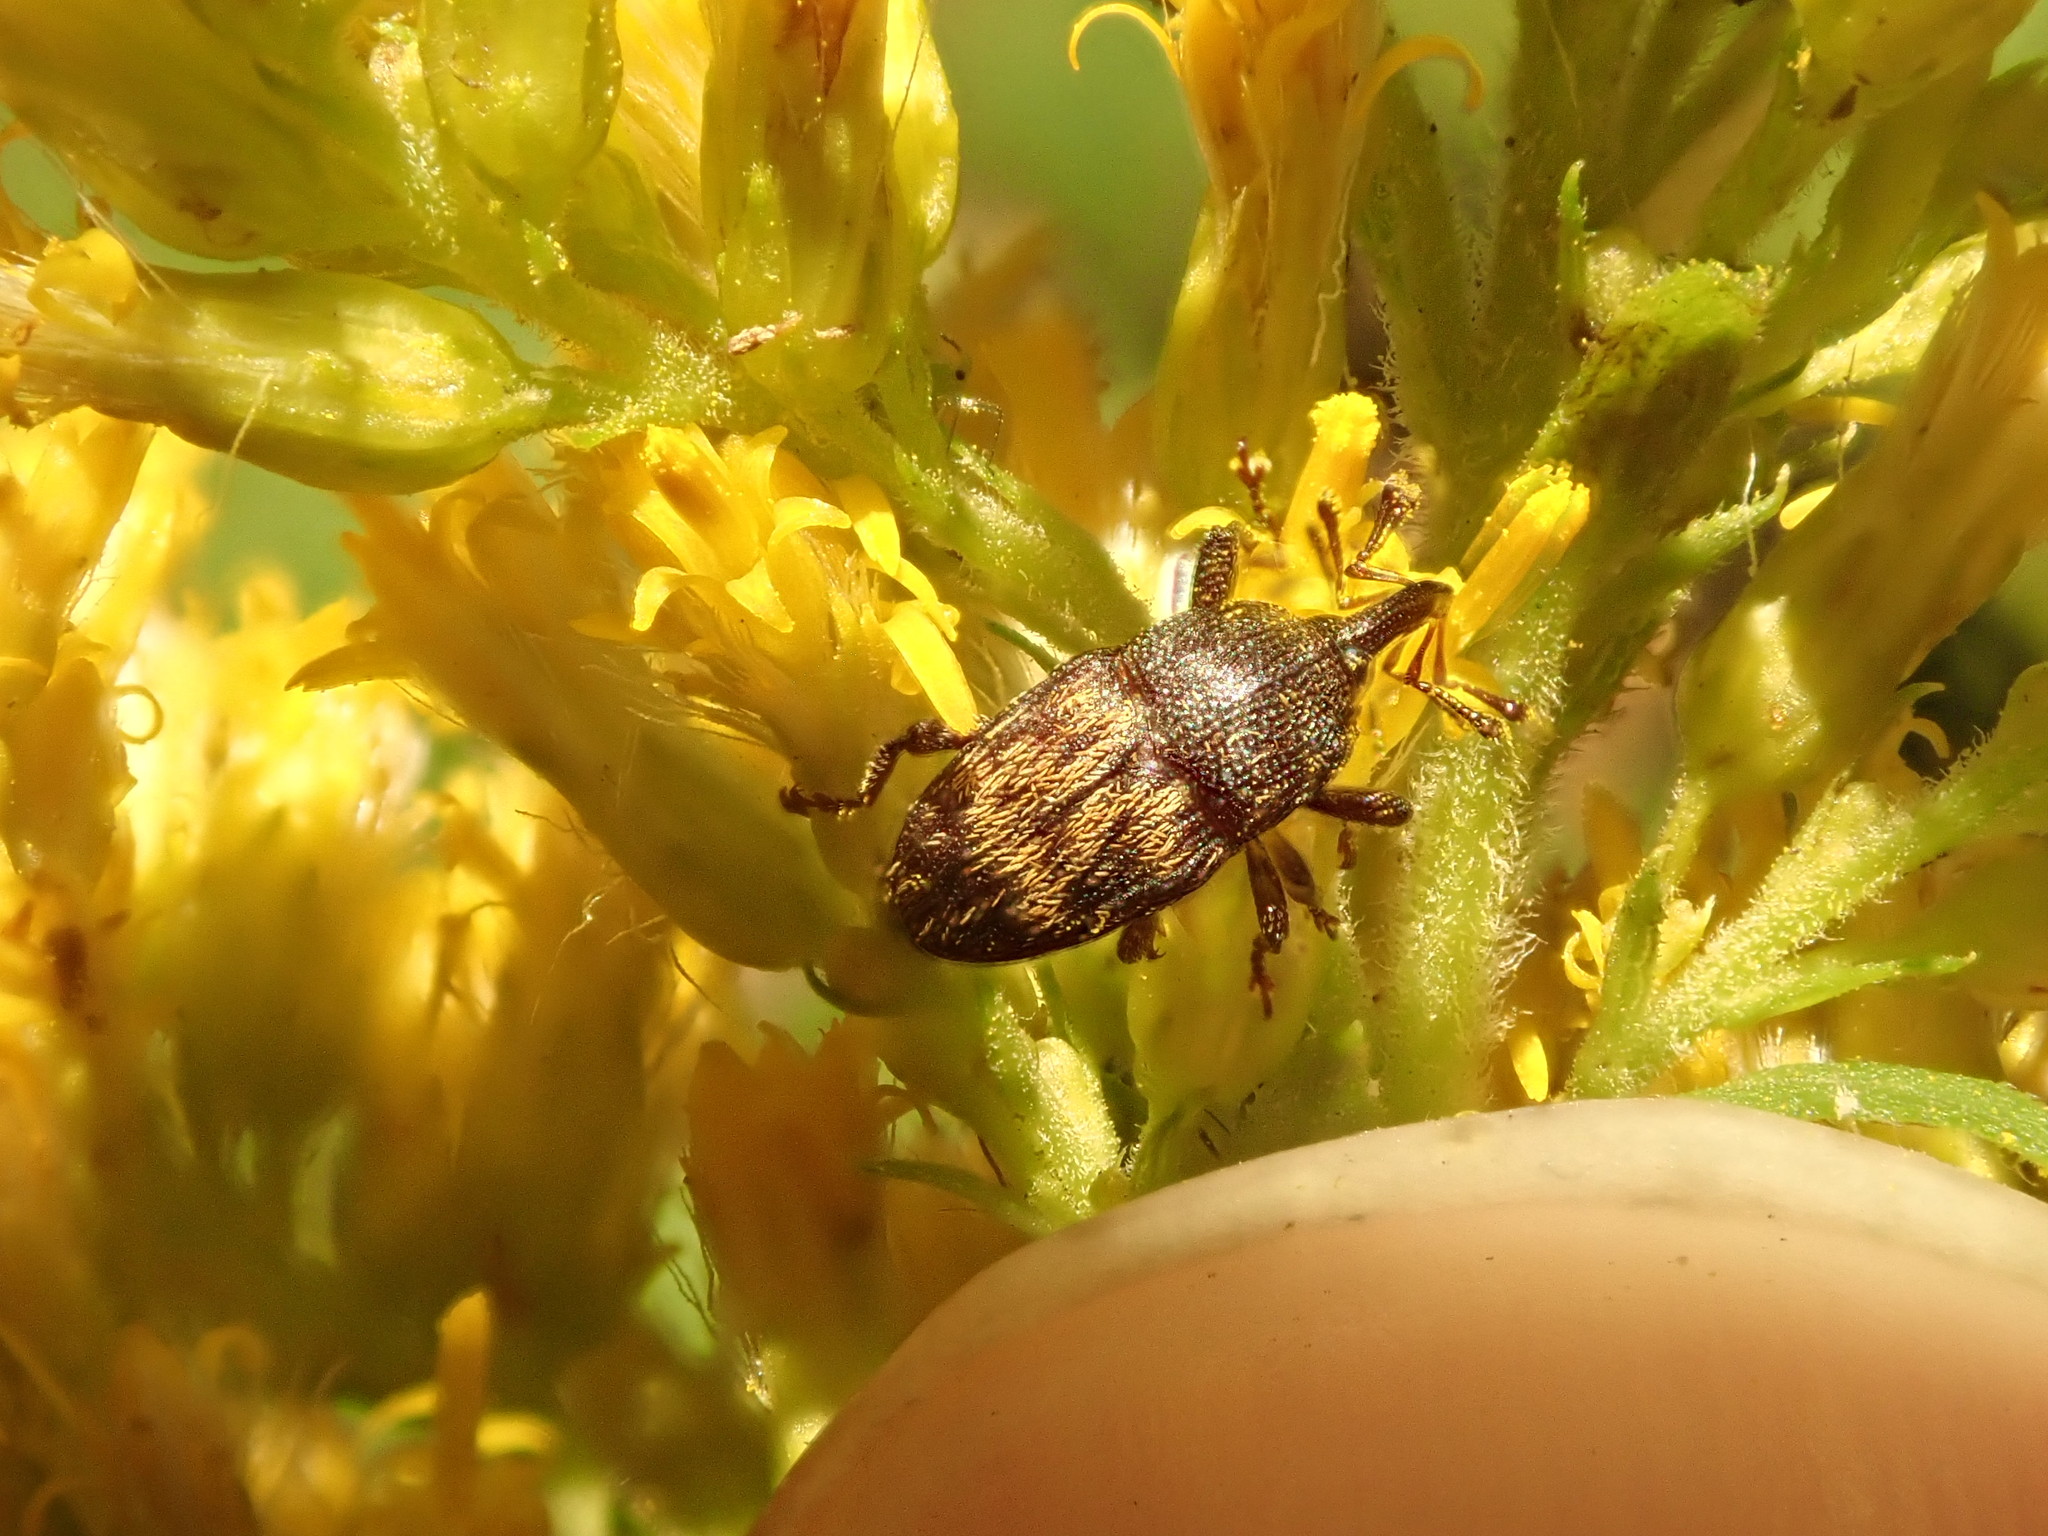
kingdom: Animalia
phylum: Arthropoda
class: Insecta
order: Coleoptera
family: Curculionidae
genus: Glyptobaris
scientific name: Glyptobaris lecontei
